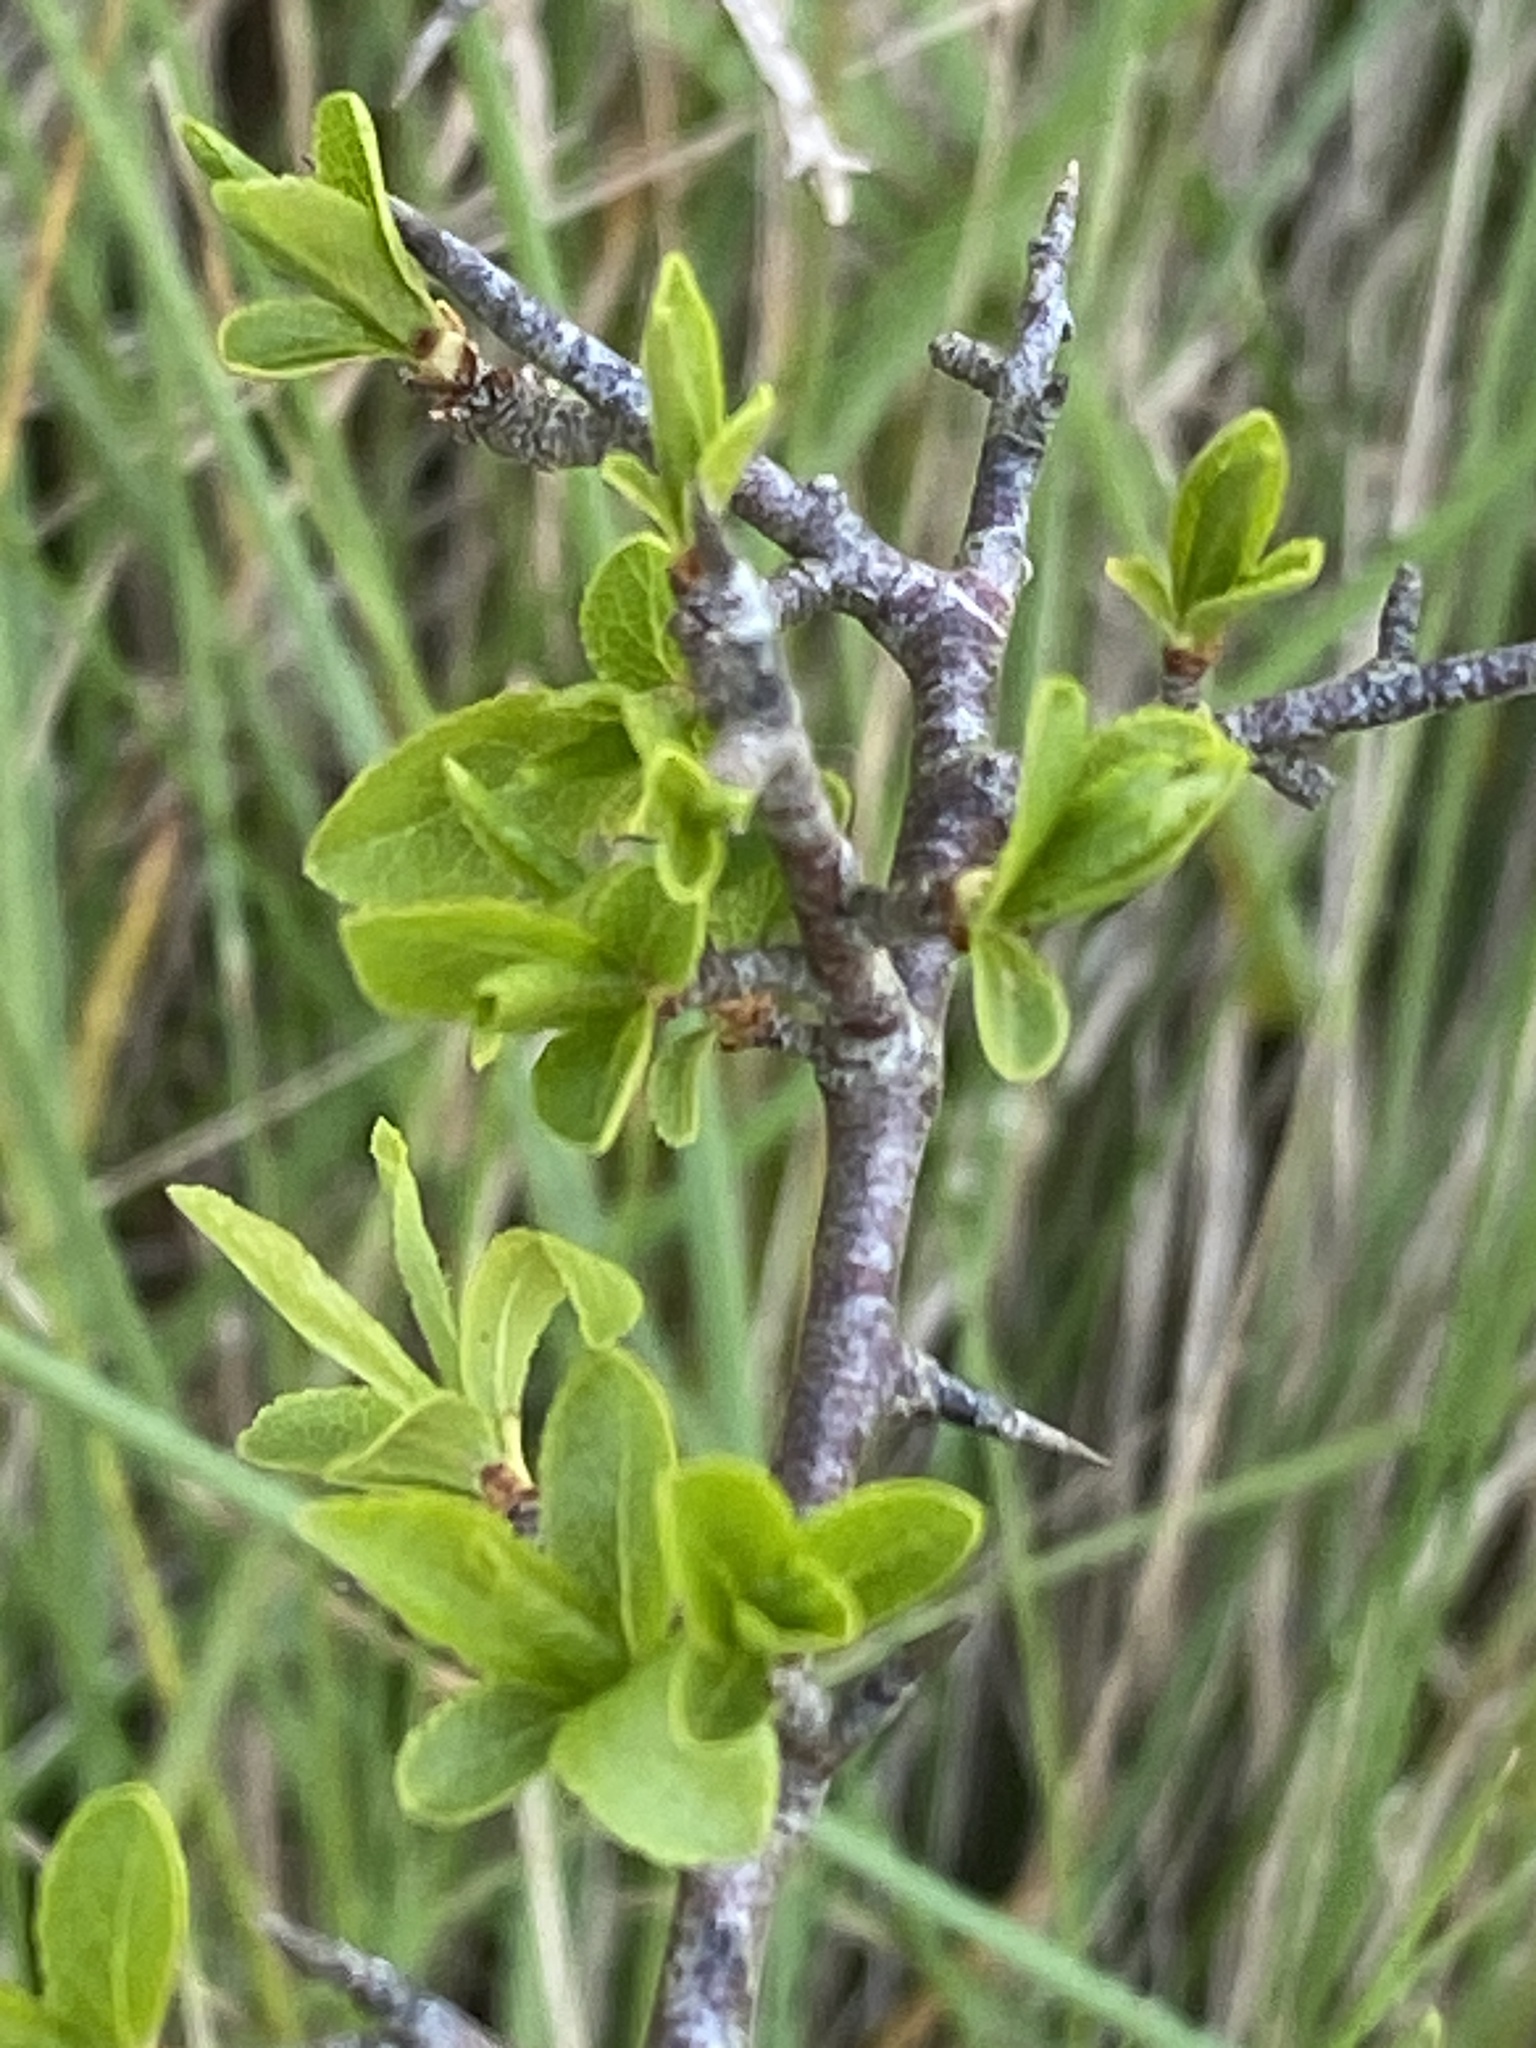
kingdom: Plantae
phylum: Tracheophyta
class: Magnoliopsida
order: Rosales
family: Rosaceae
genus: Prunus
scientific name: Prunus spinosa
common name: Blackthorn
